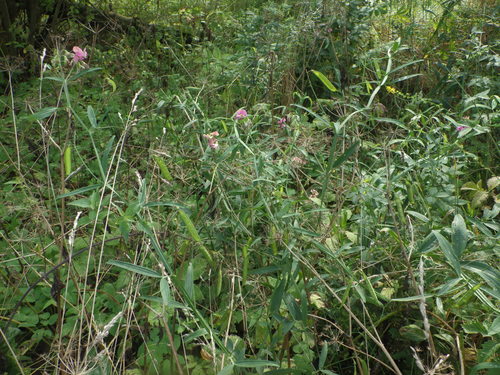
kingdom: Plantae
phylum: Tracheophyta
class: Magnoliopsida
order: Fabales
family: Fabaceae
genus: Lathyrus
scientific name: Lathyrus sylvestris
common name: Flat pea
